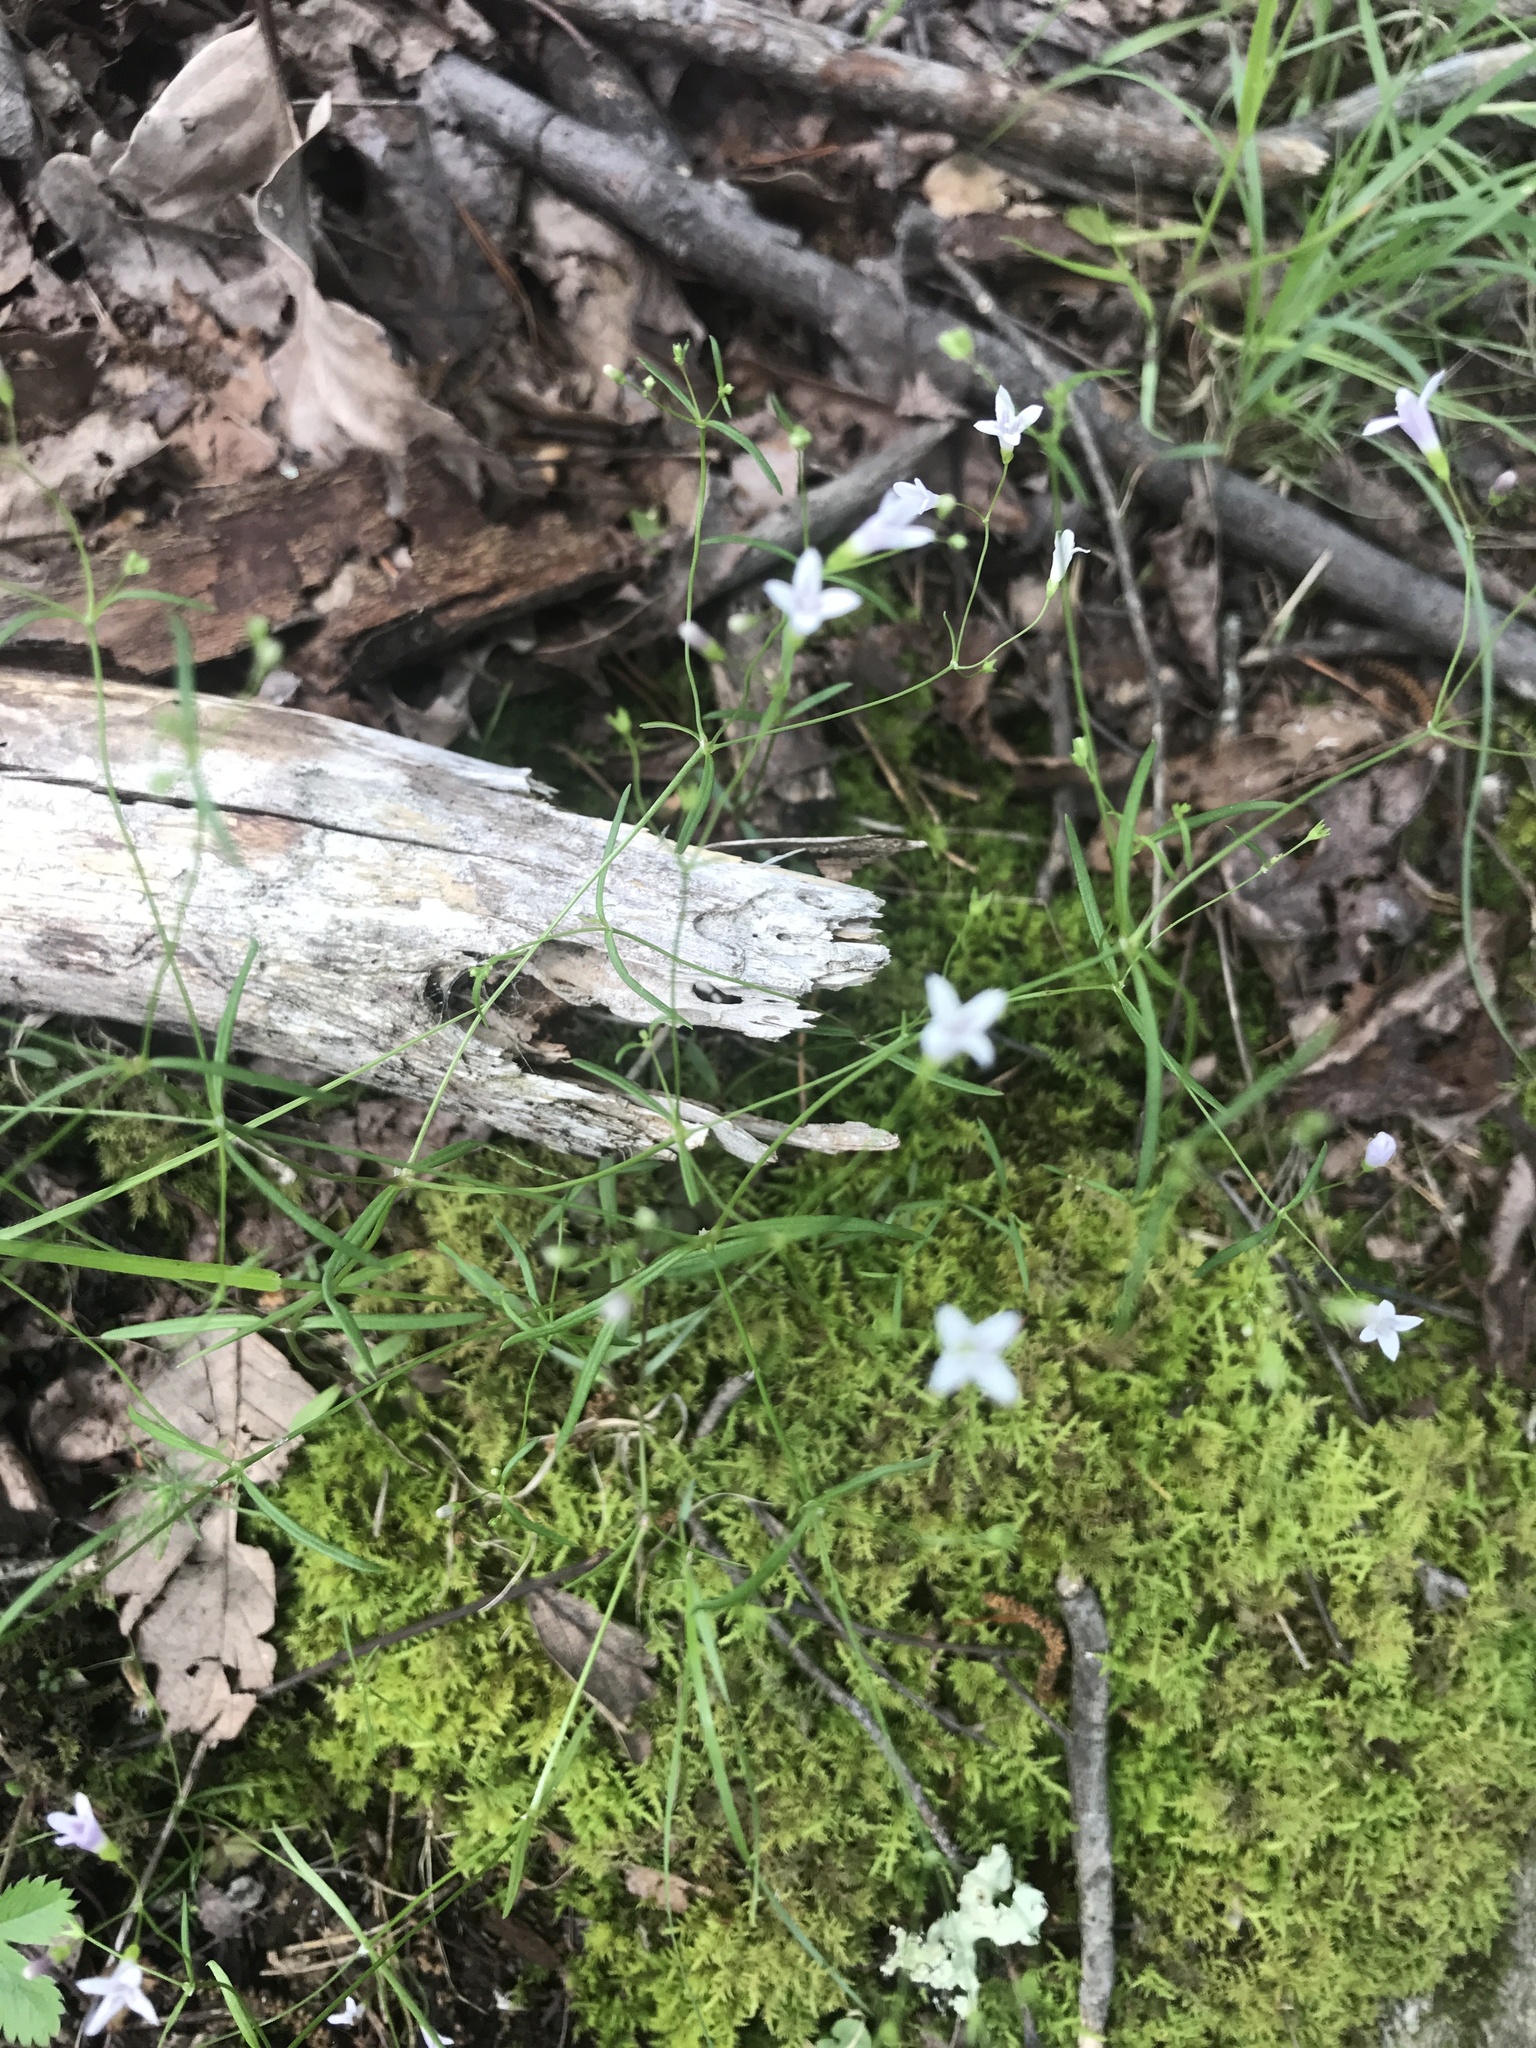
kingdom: Plantae
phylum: Tracheophyta
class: Magnoliopsida
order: Gentianales
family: Rubiaceae
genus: Houstonia
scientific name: Houstonia longifolia
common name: Long-leaved bluets
